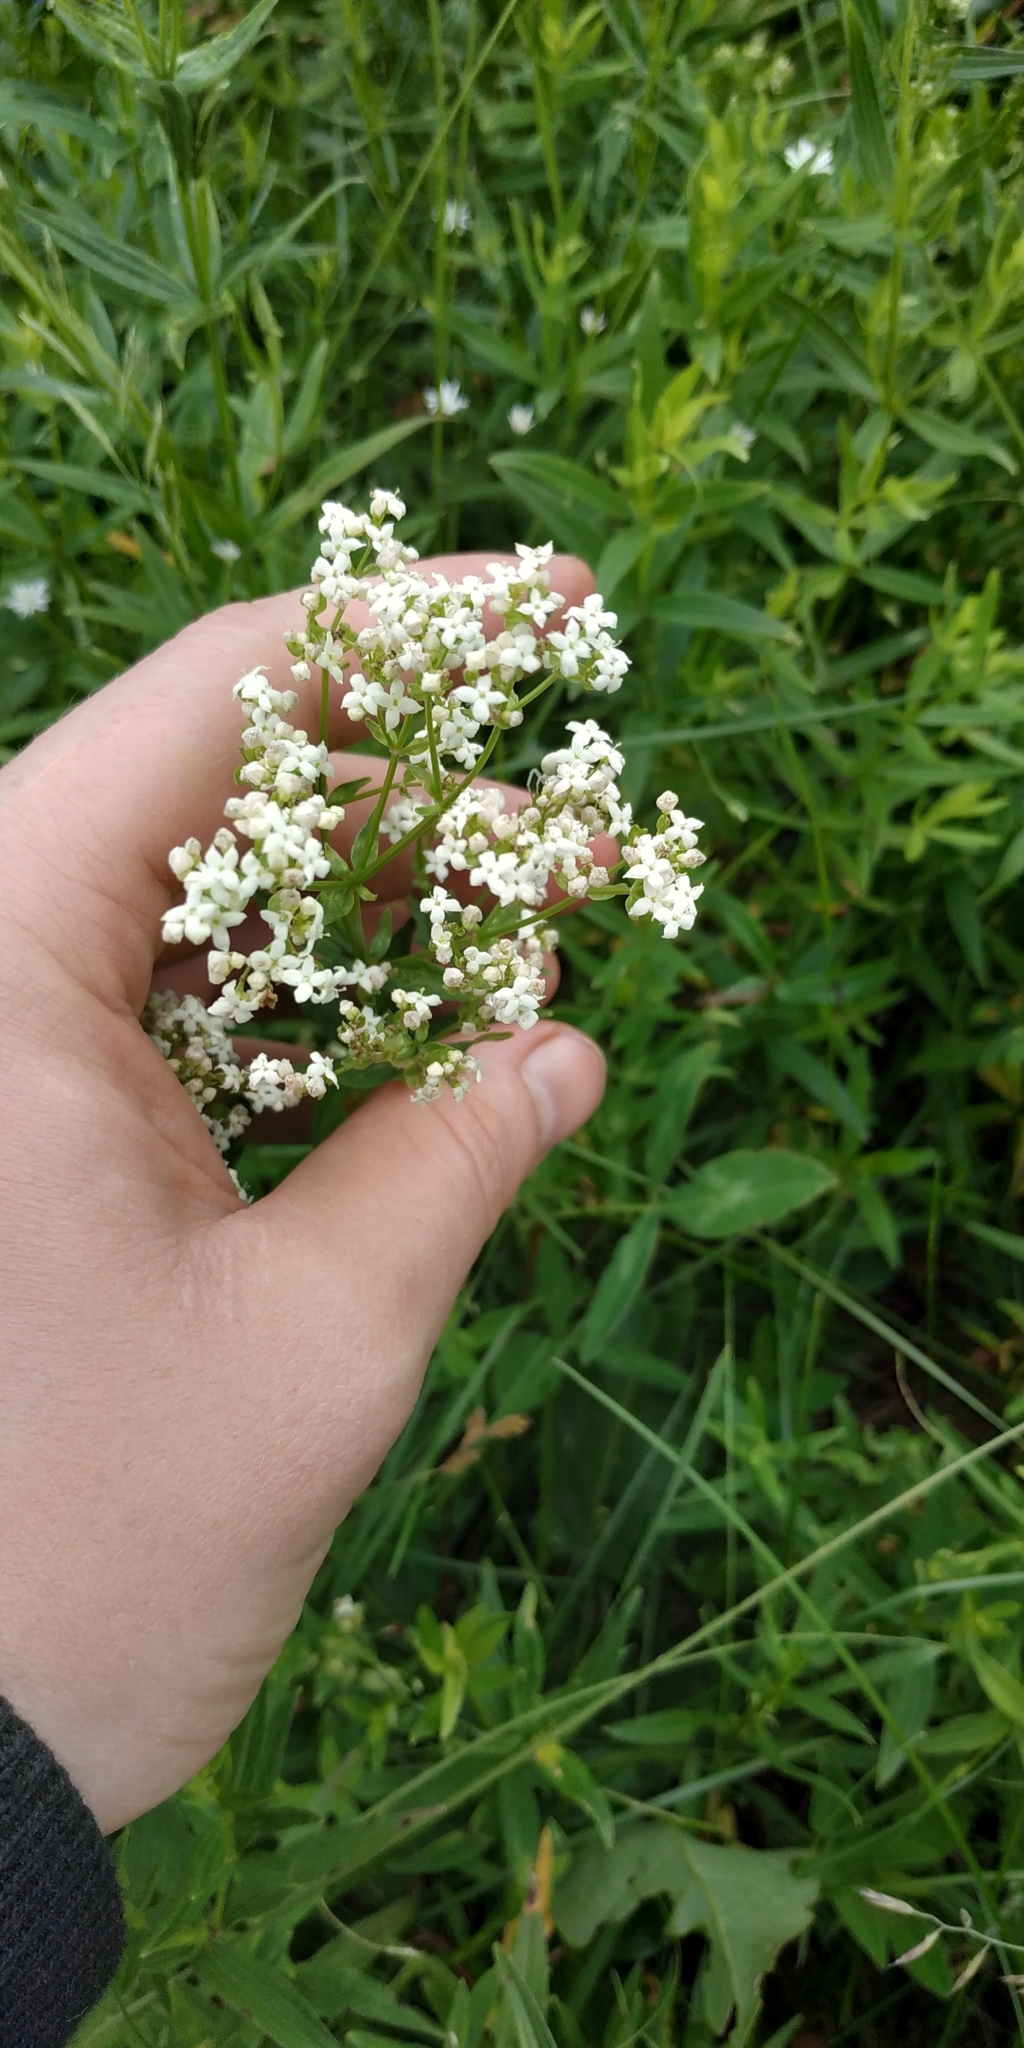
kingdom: Plantae
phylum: Tracheophyta
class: Magnoliopsida
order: Gentianales
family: Rubiaceae
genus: Galium
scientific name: Galium boreale
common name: Northern bedstraw
